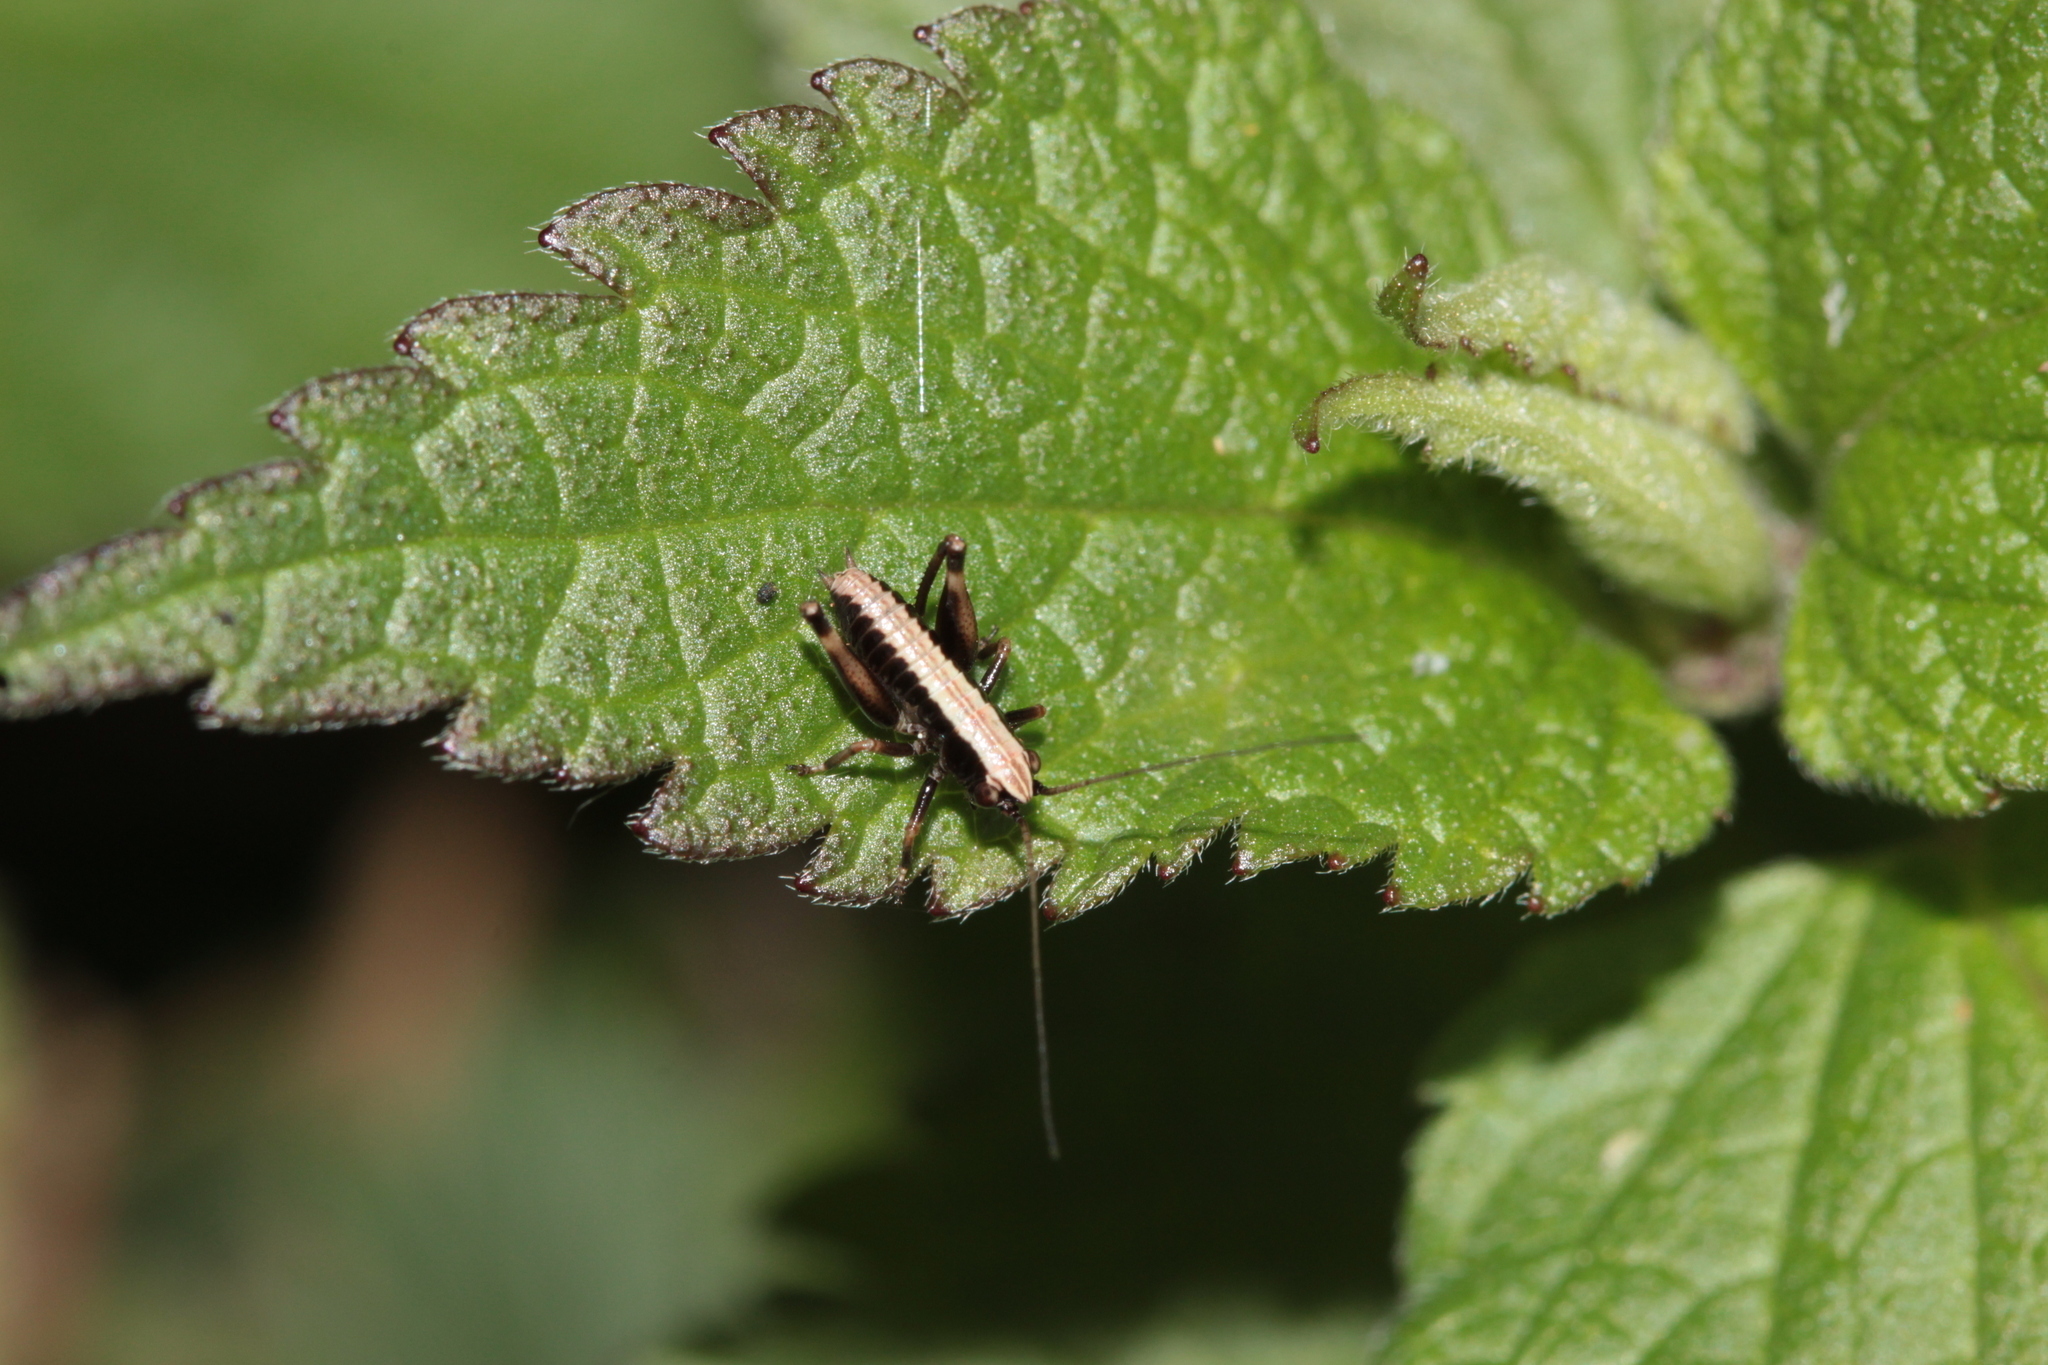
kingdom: Animalia
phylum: Arthropoda
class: Insecta
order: Orthoptera
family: Tettigoniidae
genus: Pholidoptera
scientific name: Pholidoptera griseoaptera
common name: Dark bush-cricket
